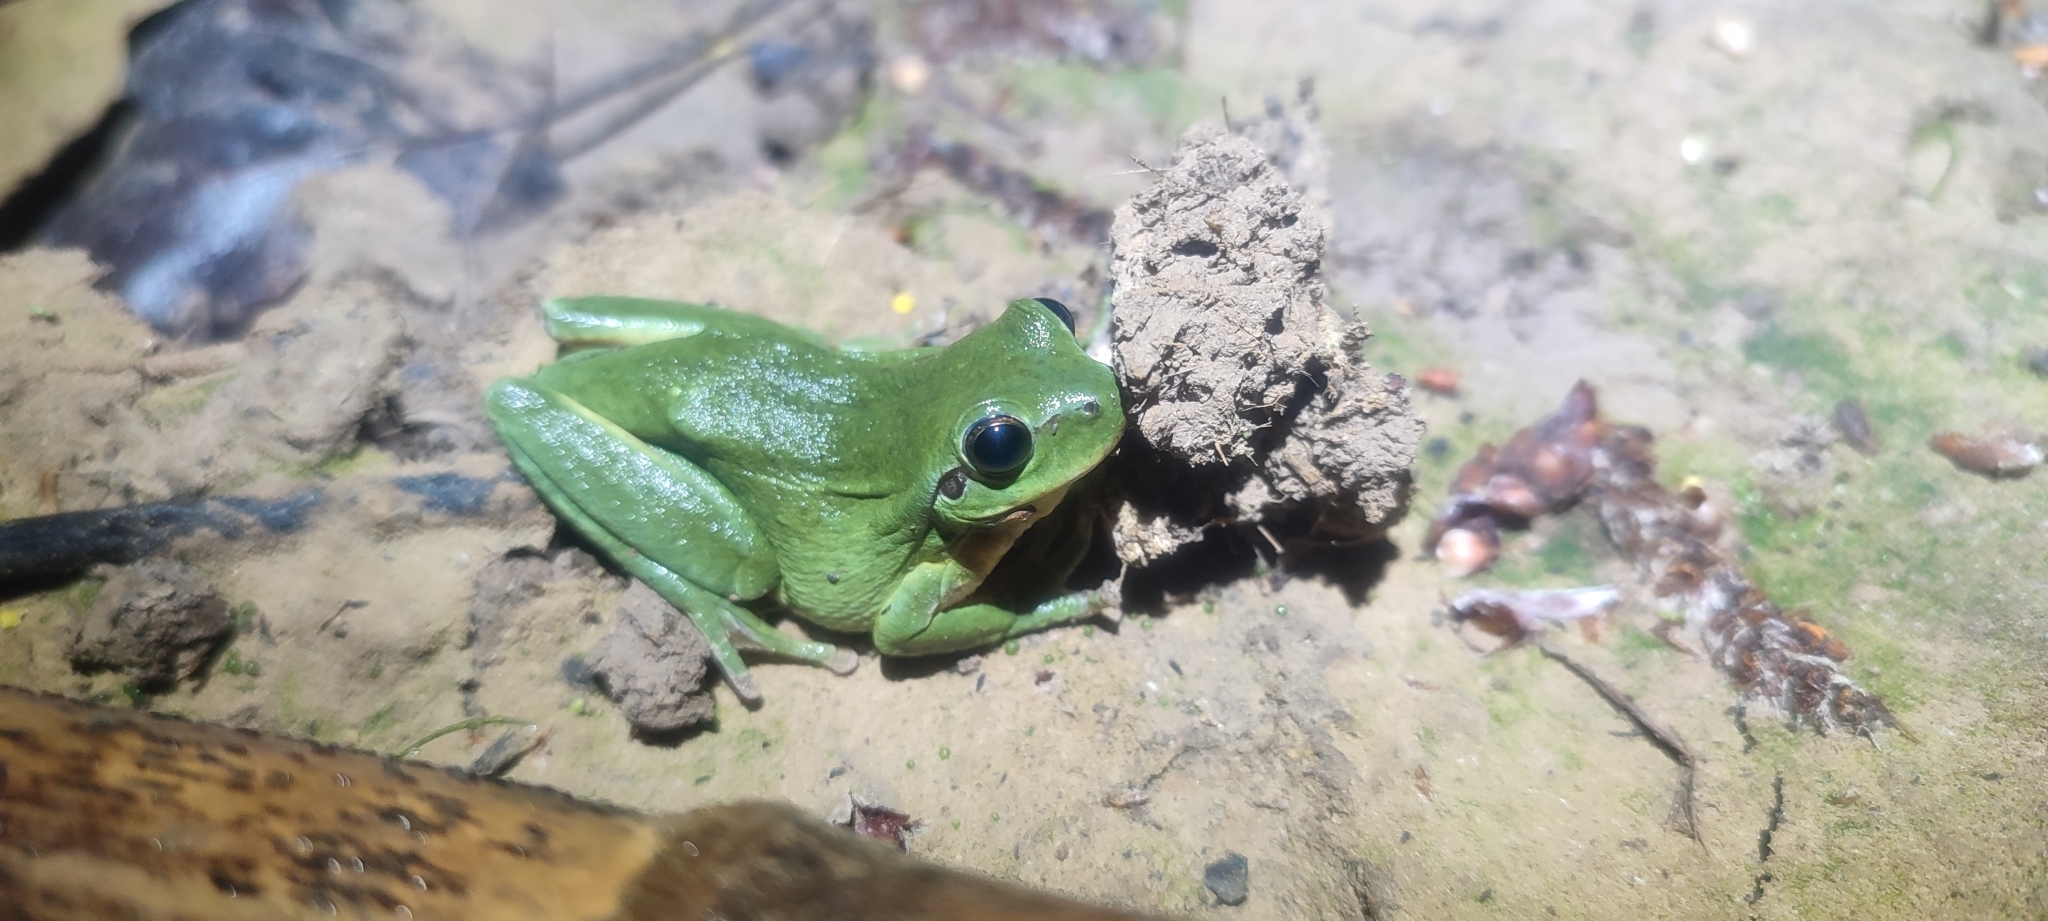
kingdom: Animalia
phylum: Chordata
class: Amphibia
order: Anura
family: Hylidae
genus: Hyla
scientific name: Hyla meridionalis
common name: Stripeless tree frog
